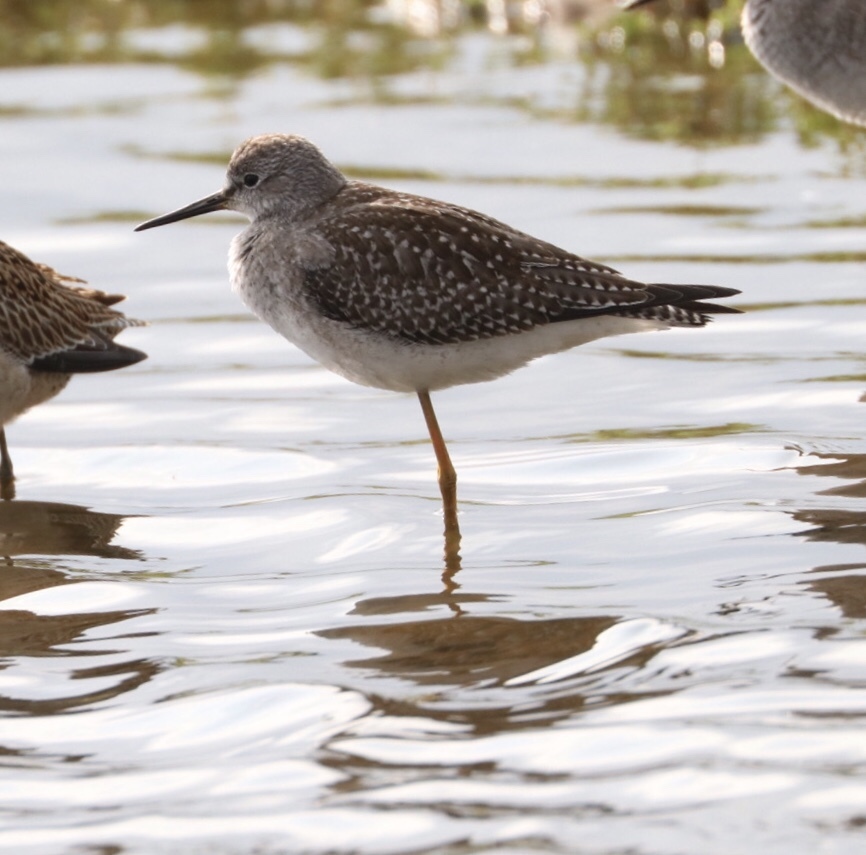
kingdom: Animalia
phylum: Chordata
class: Aves
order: Charadriiformes
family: Scolopacidae
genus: Tringa
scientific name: Tringa flavipes
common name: Lesser yellowlegs
